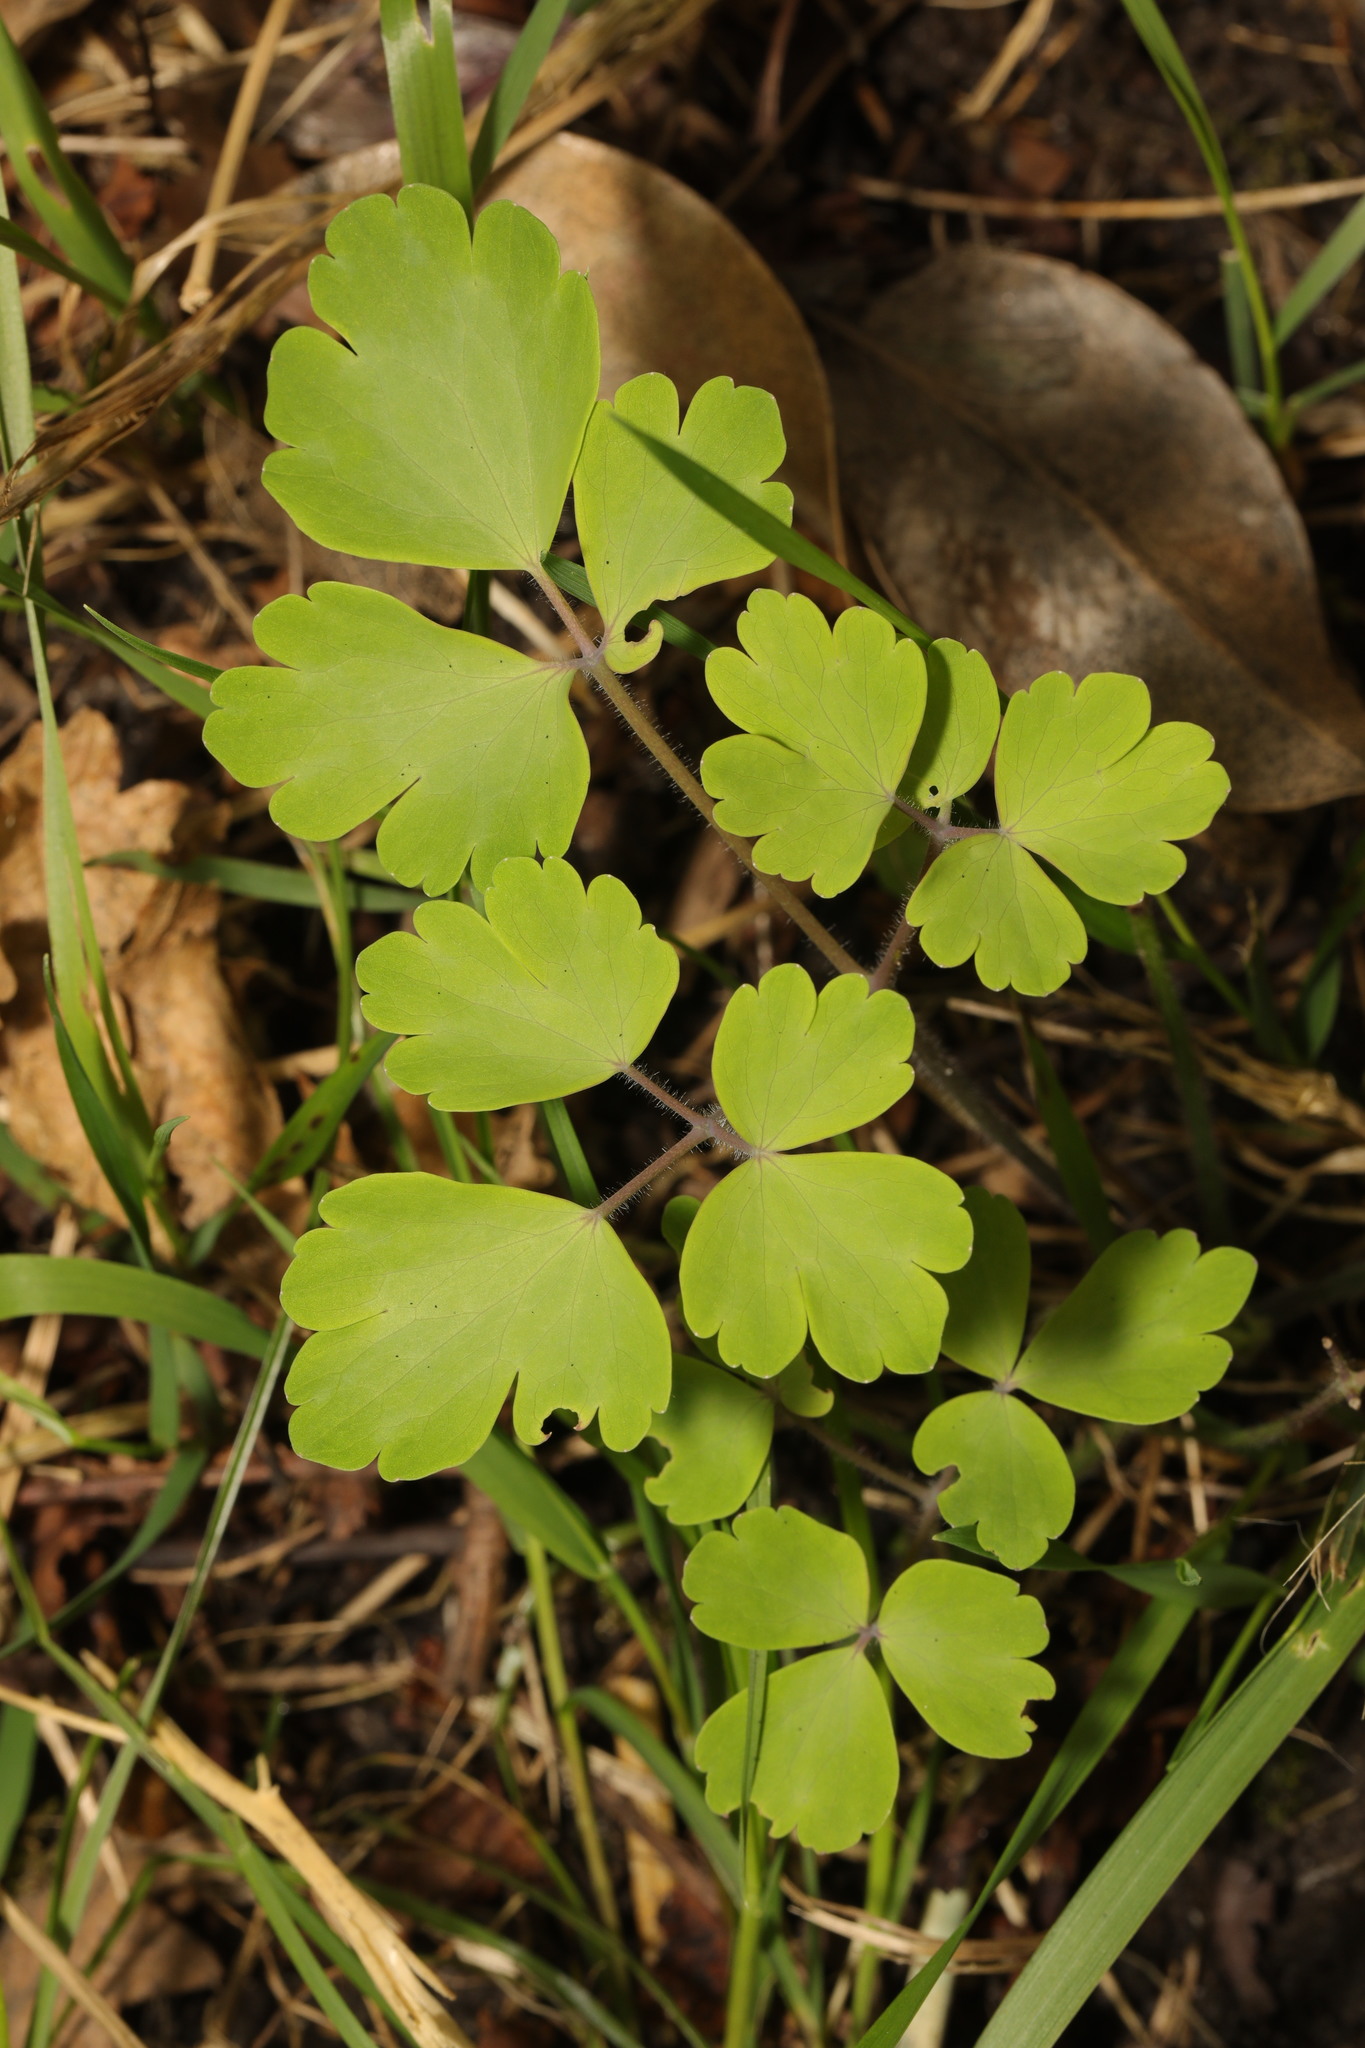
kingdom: Plantae
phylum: Tracheophyta
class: Magnoliopsida
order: Ranunculales
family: Ranunculaceae
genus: Aquilegia
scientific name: Aquilegia vulgaris
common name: Columbine
